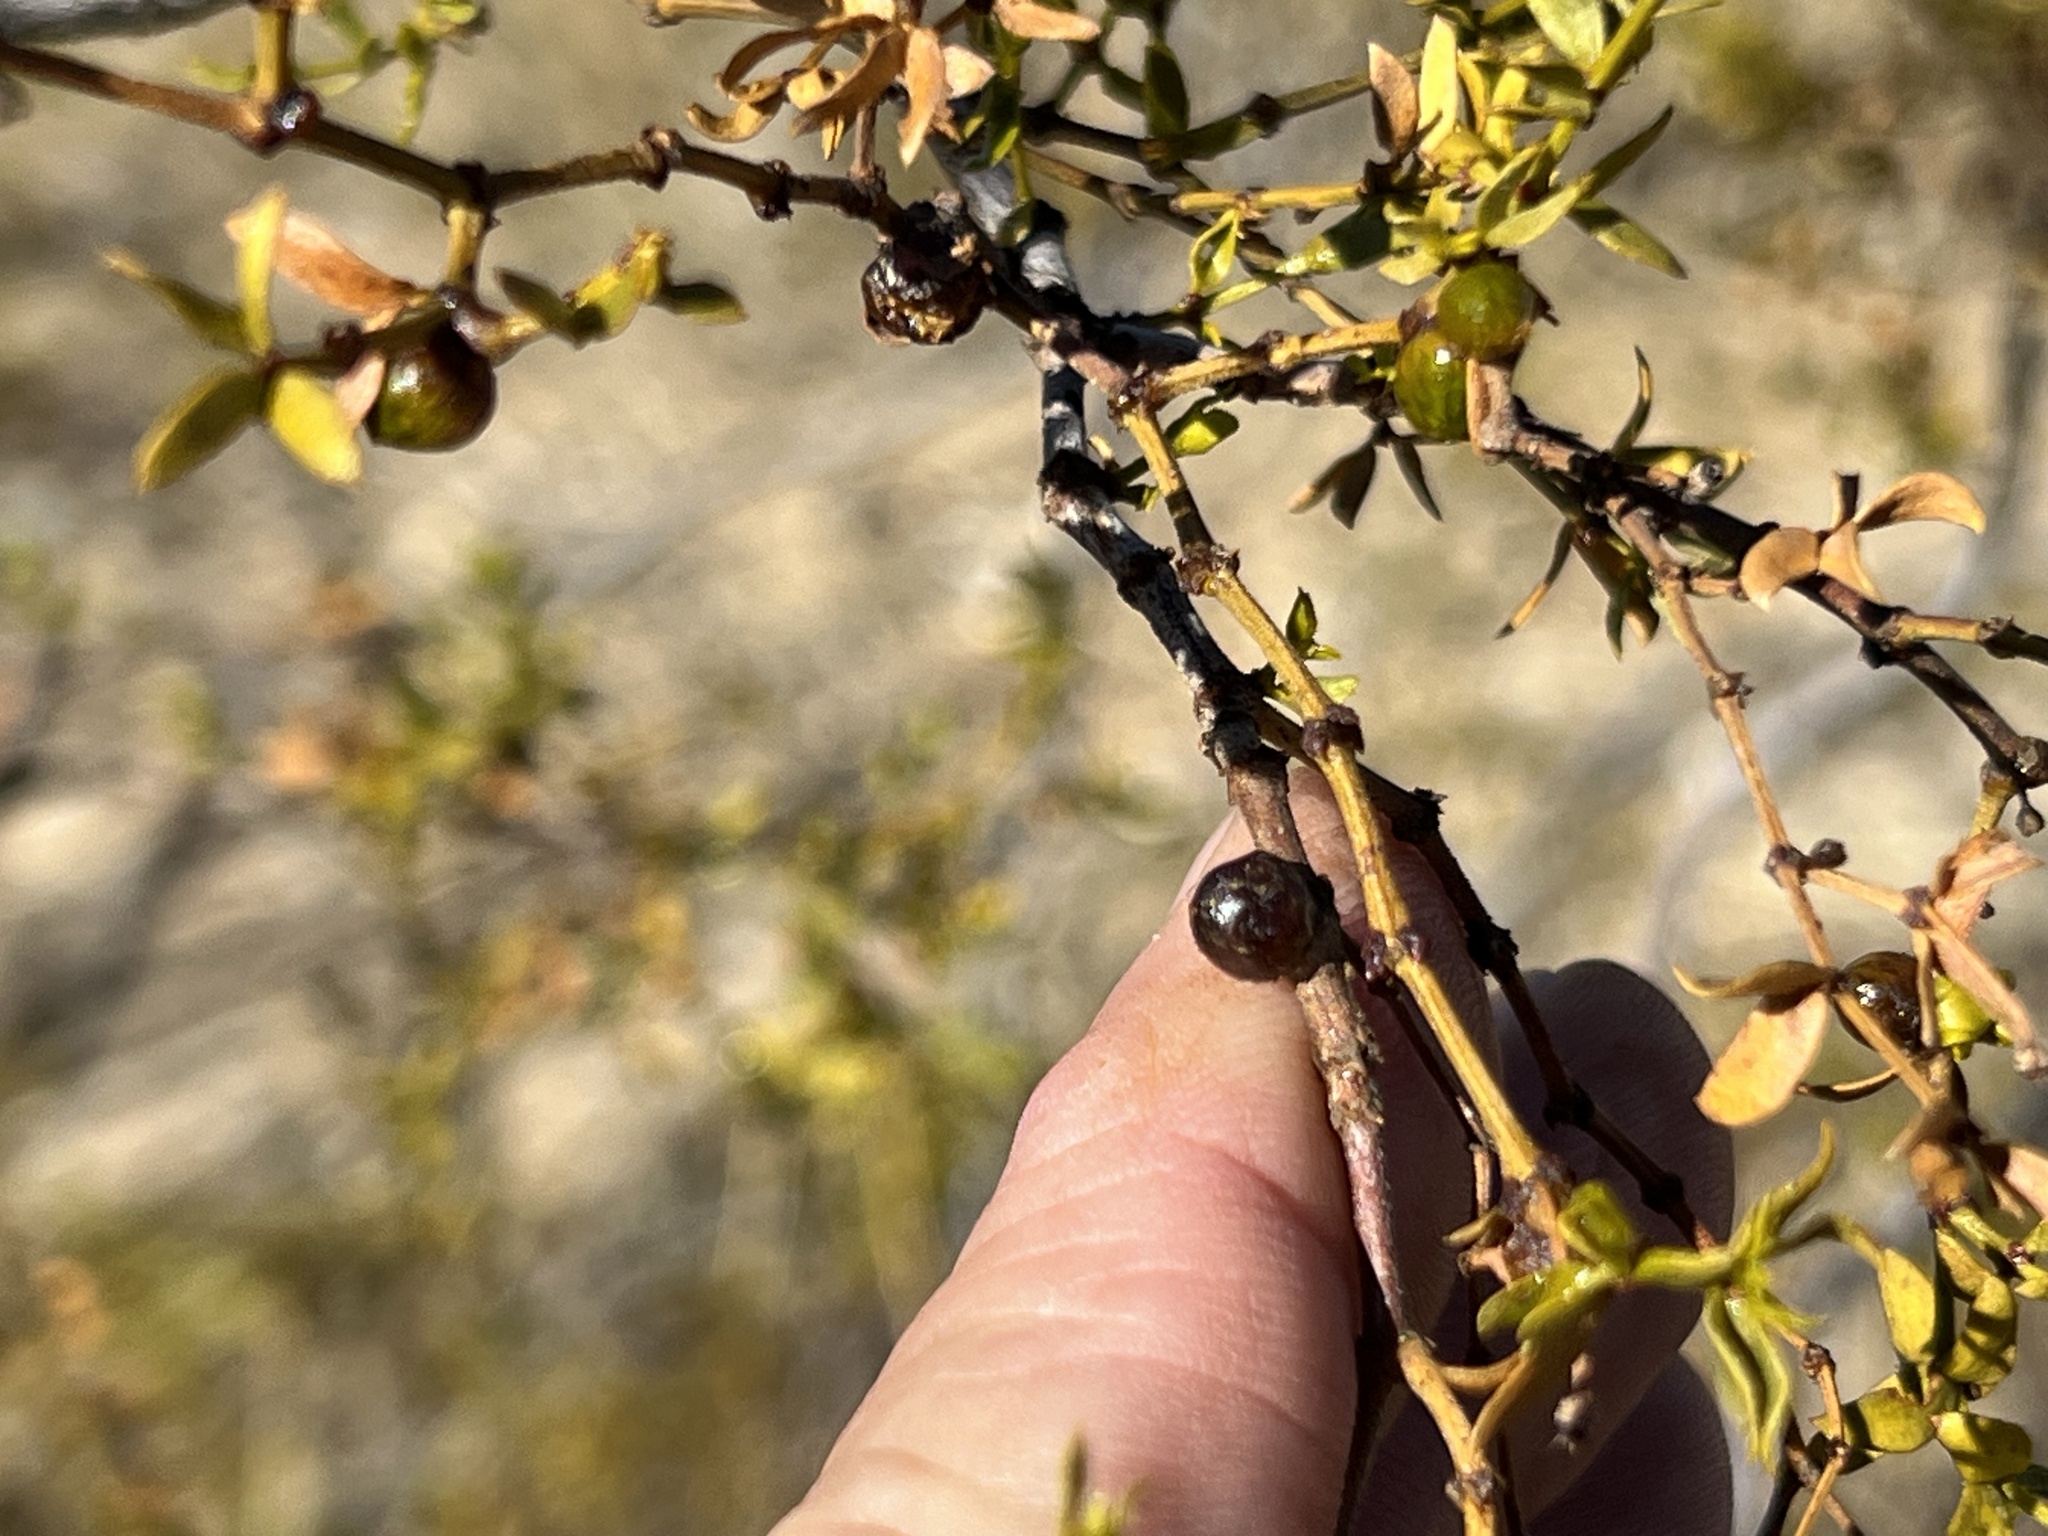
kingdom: Animalia
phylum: Arthropoda
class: Insecta
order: Diptera
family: Cecidomyiidae
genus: Asphondylia
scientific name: Asphondylia resinosa
